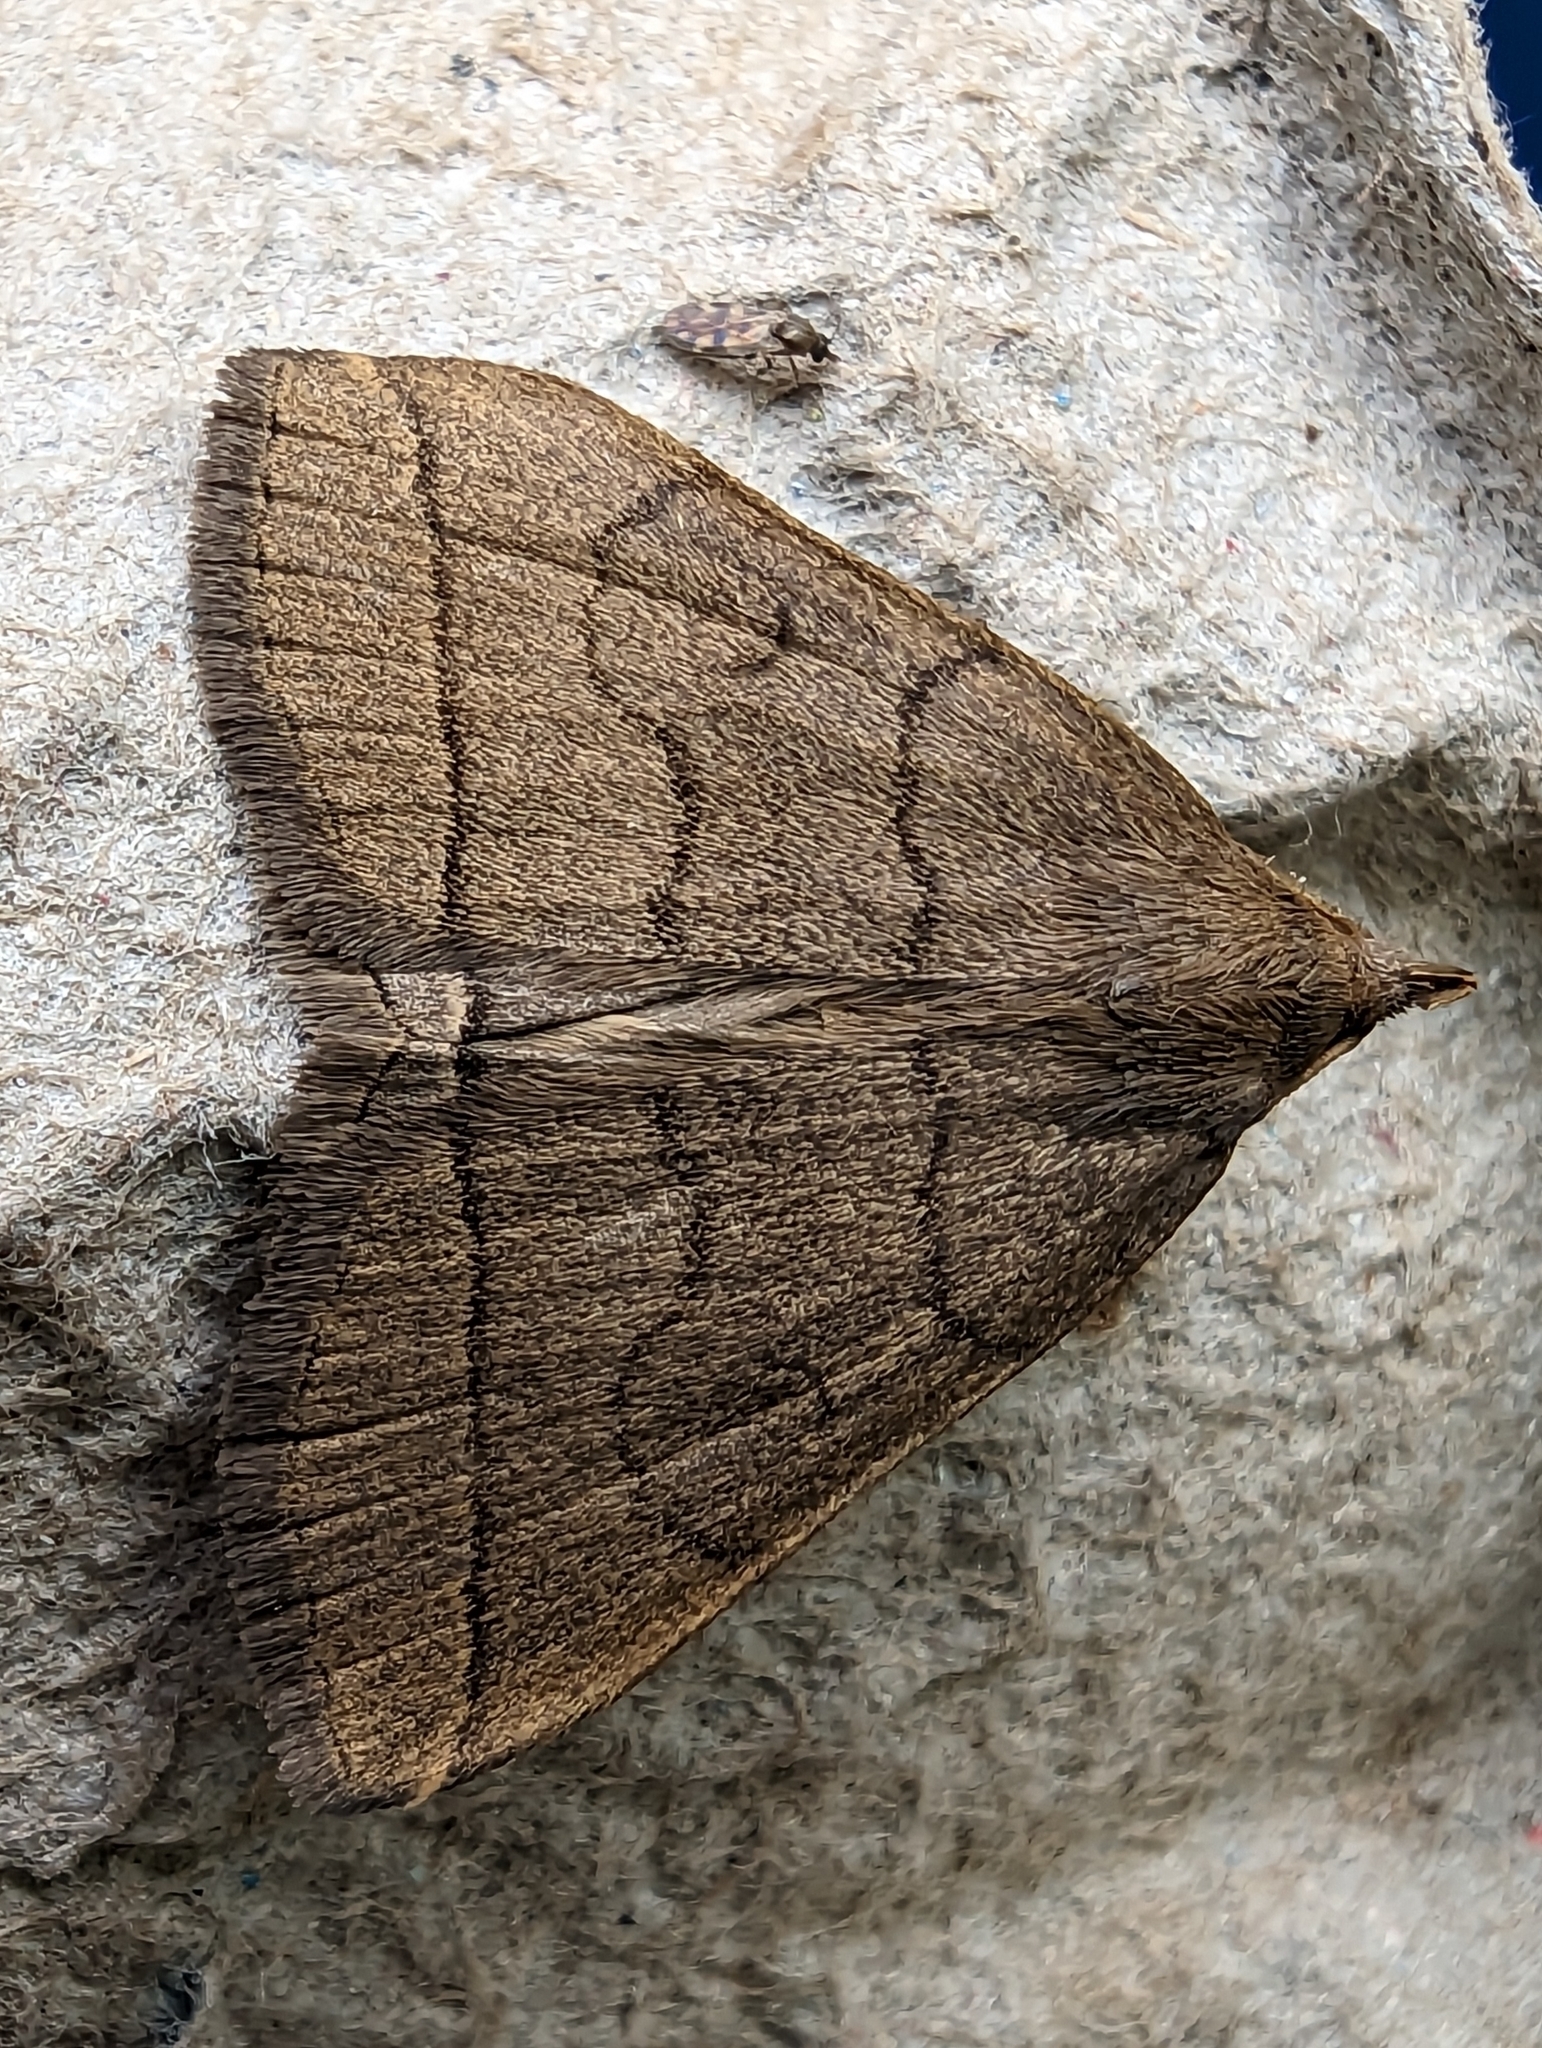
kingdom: Animalia
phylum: Arthropoda
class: Insecta
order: Lepidoptera
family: Erebidae
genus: Herminia
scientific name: Herminia tarsipennalis
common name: Fan-foot
